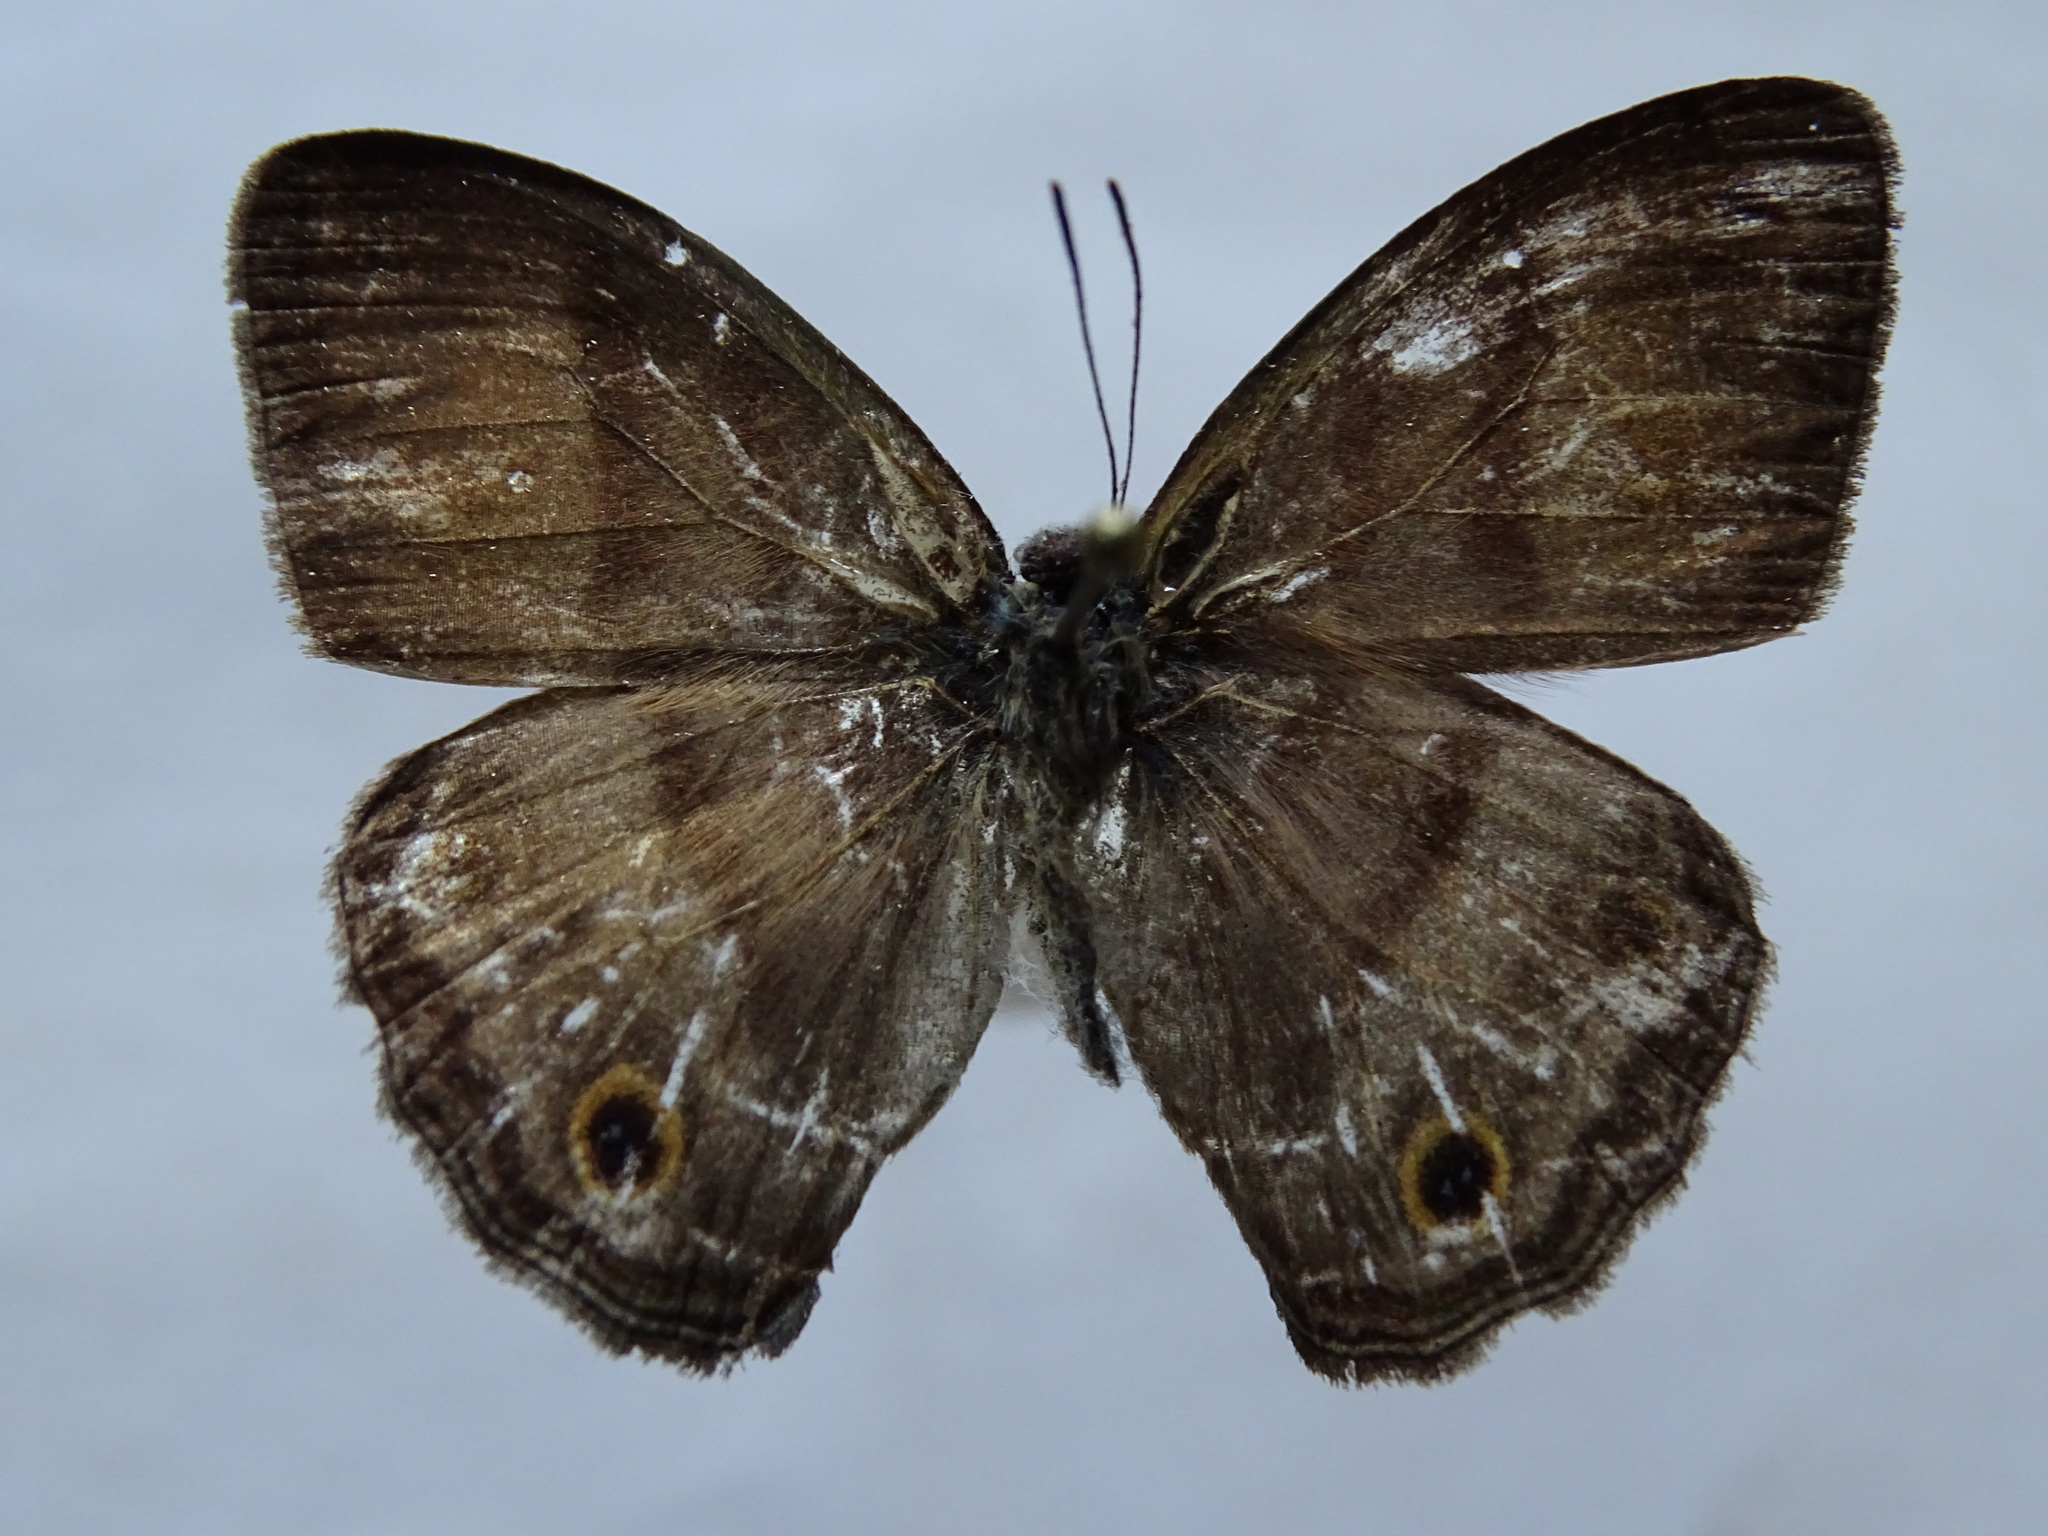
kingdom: Animalia
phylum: Arthropoda
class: Insecta
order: Lepidoptera
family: Nymphalidae
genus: Paryphthimoides
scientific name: Paryphthimoides
